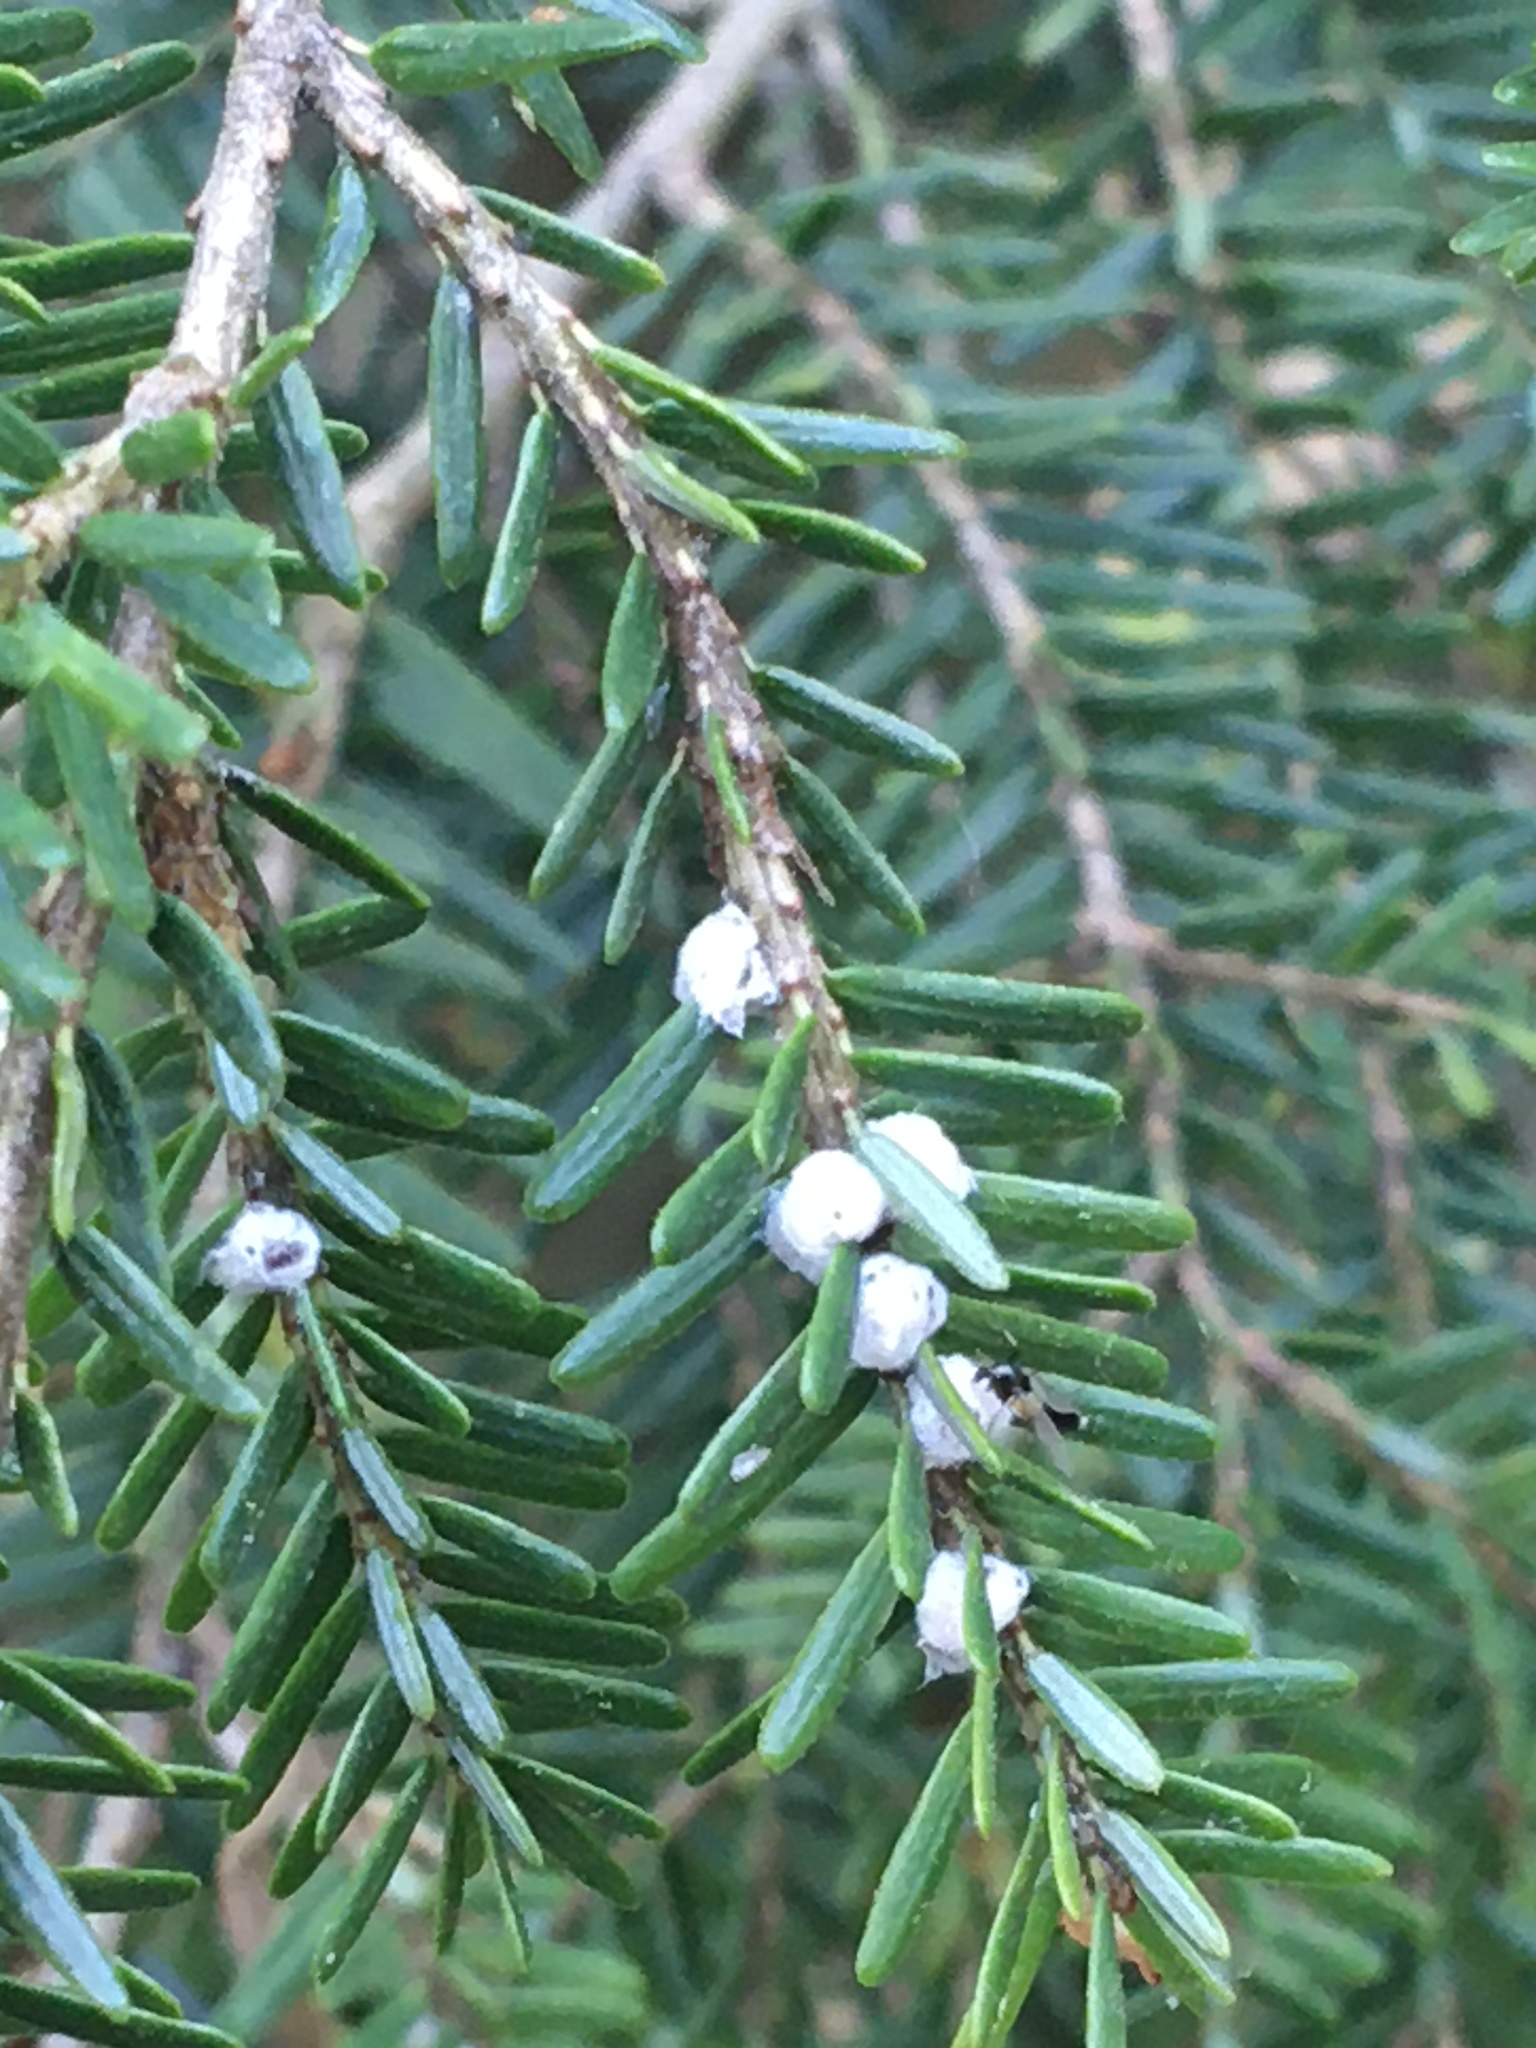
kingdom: Animalia
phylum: Arthropoda
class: Insecta
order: Hemiptera
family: Adelgidae
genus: Adelges
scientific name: Adelges tsugae
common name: Hemlock woolly adelgid
